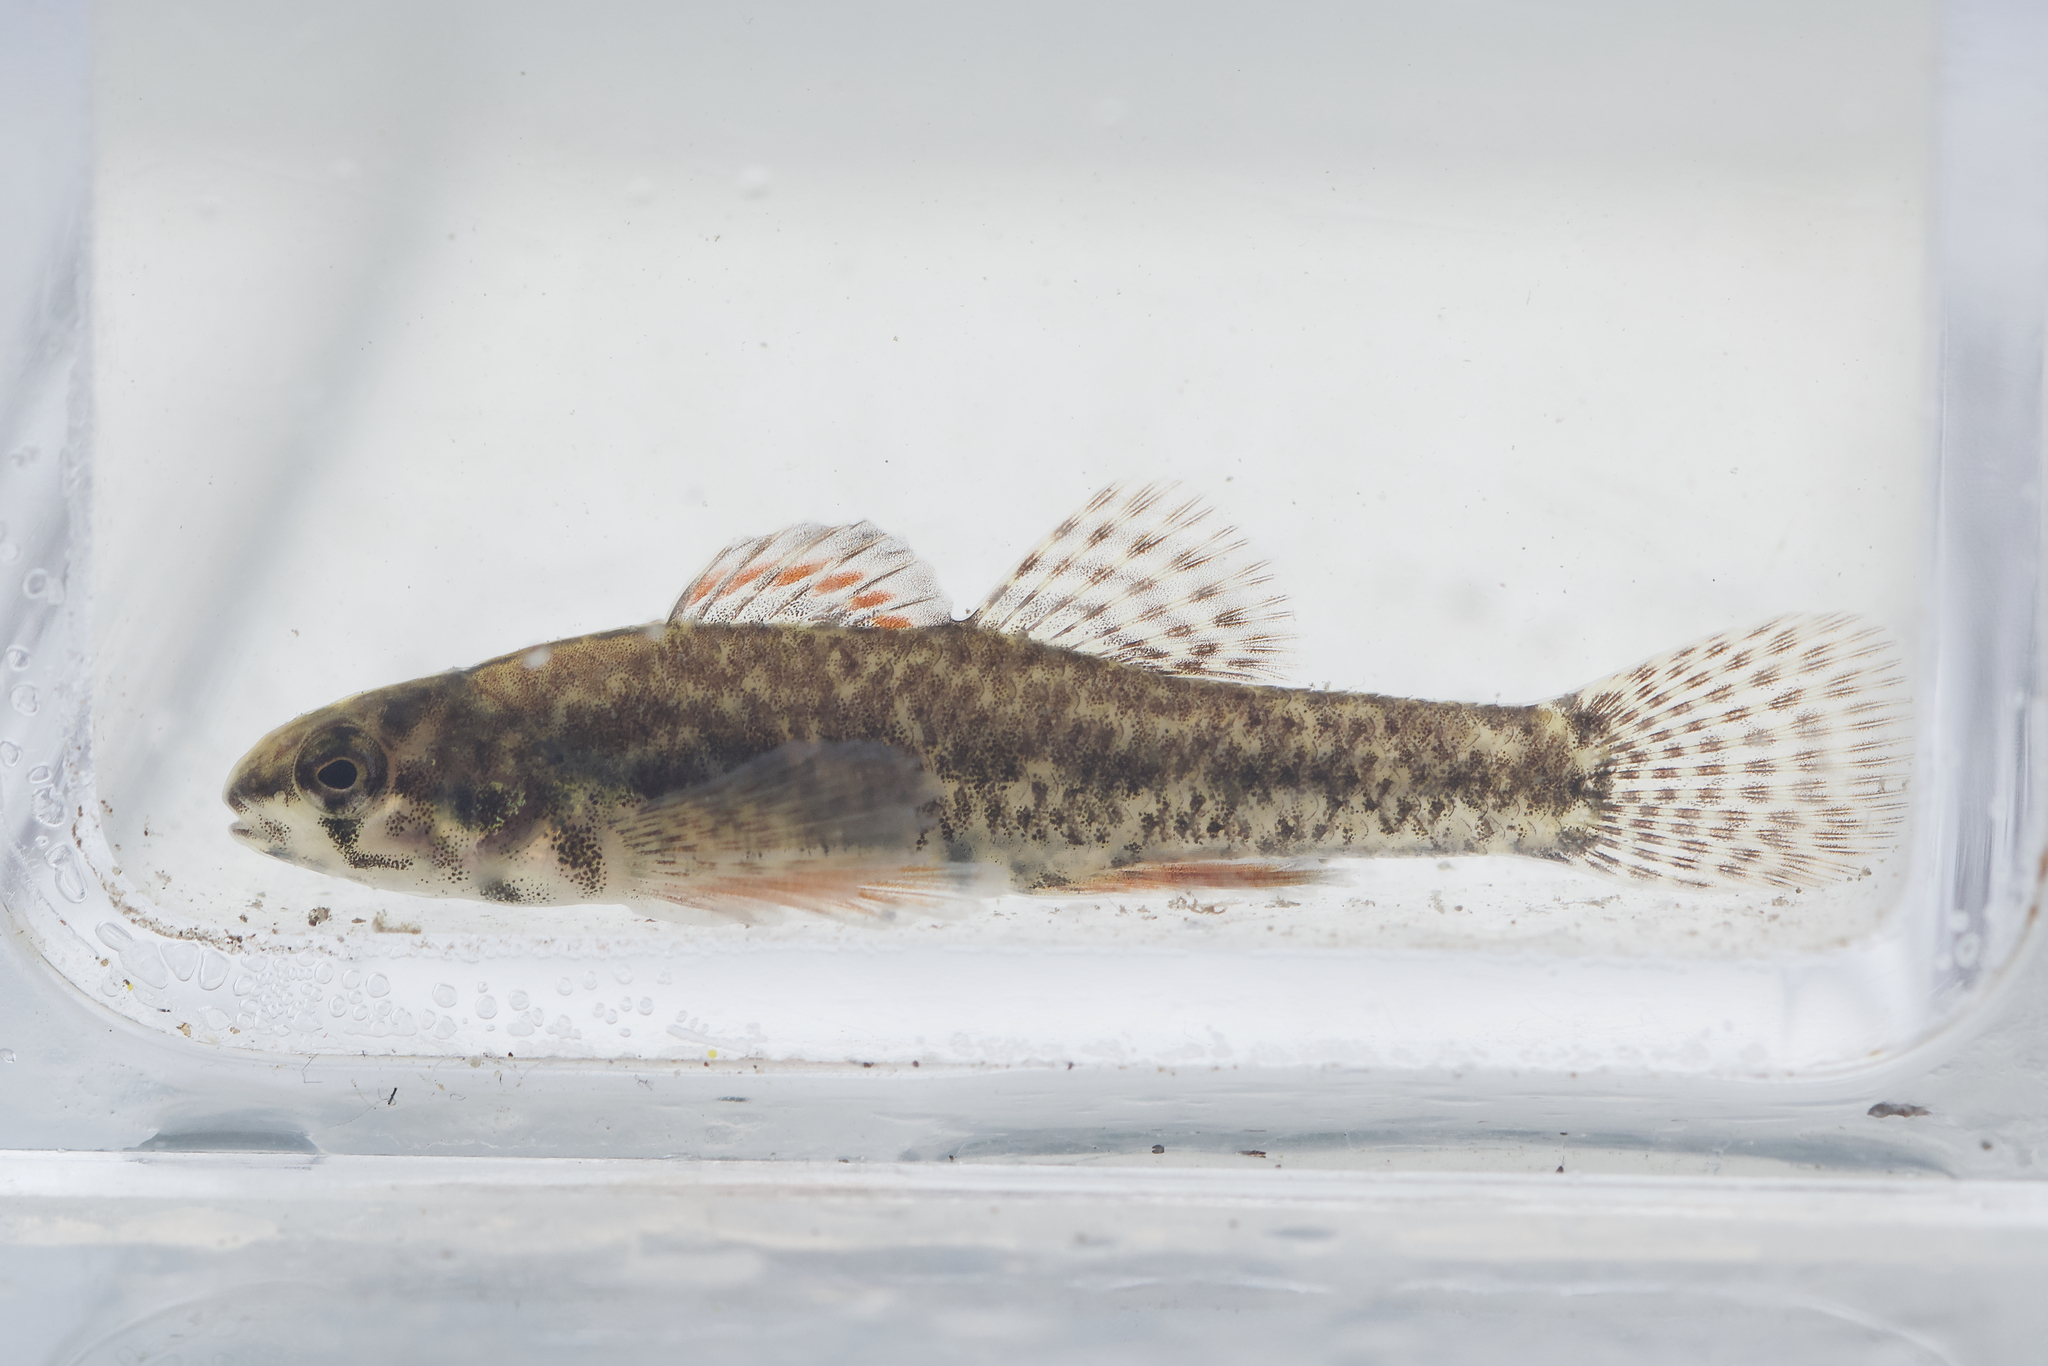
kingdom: Animalia
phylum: Chordata
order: Perciformes
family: Percidae
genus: Etheostoma
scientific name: Etheostoma microperca
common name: Least darter
